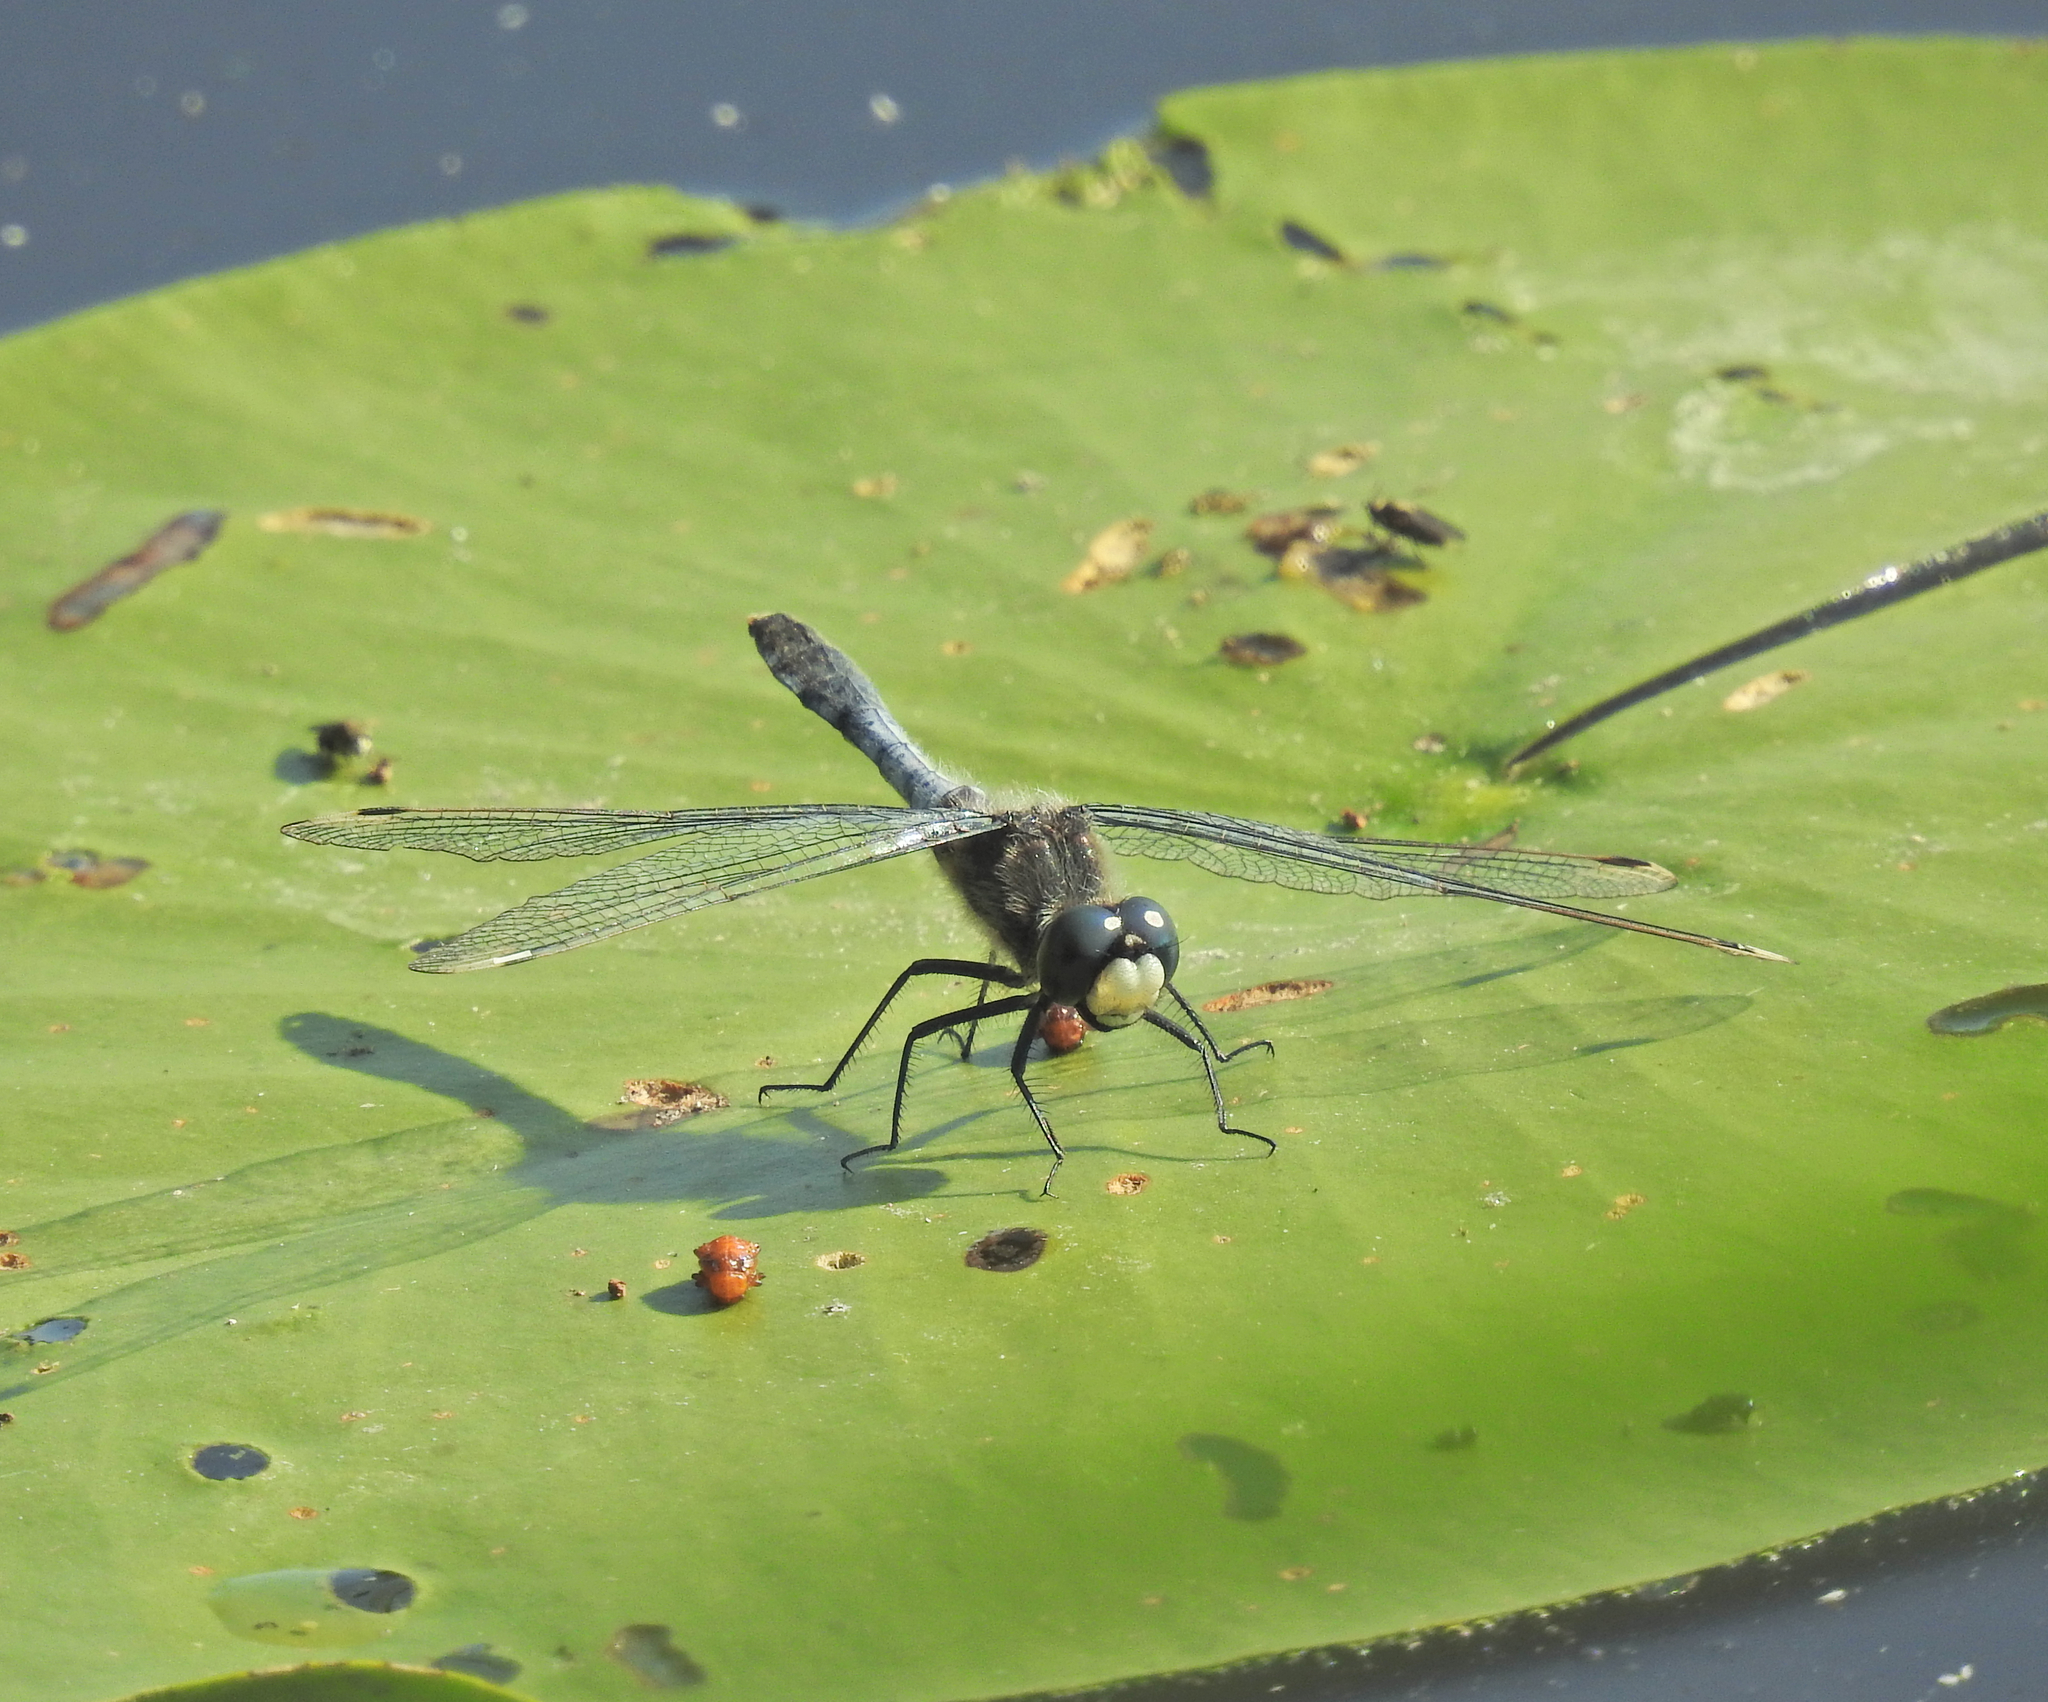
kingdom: Animalia
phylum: Arthropoda
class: Insecta
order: Odonata
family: Libellulidae
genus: Leucorrhinia
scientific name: Leucorrhinia caudalis
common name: Lilypad whiteface
